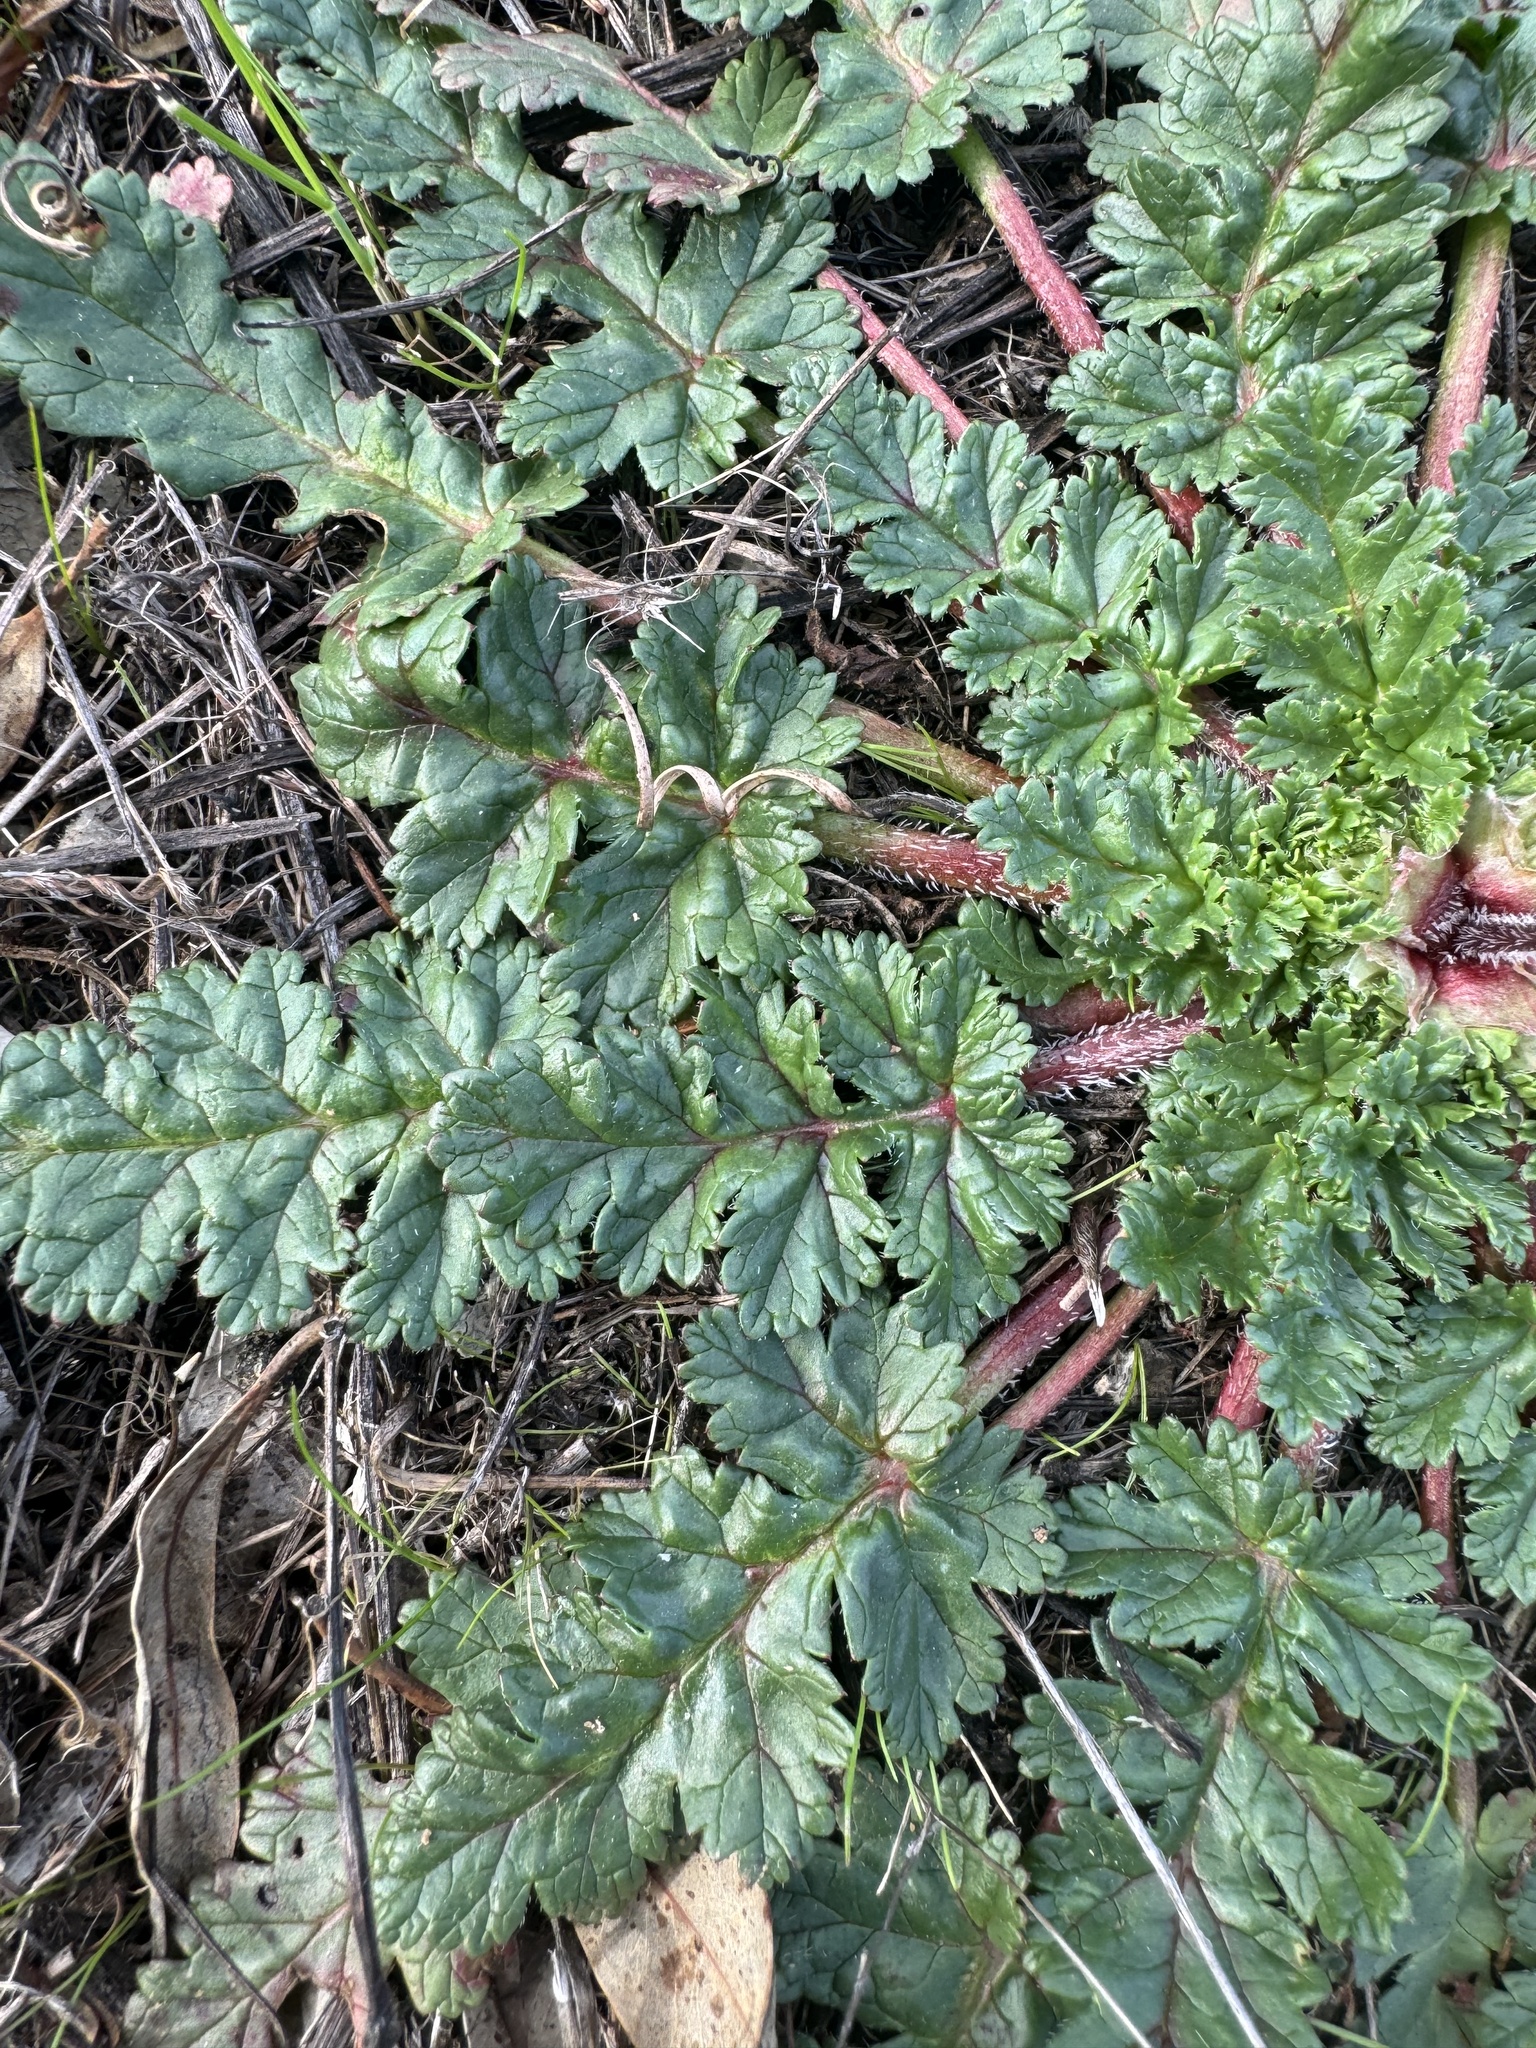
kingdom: Plantae
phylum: Tracheophyta
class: Magnoliopsida
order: Geraniales
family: Geraniaceae
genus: Erodium
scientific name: Erodium botrys
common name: Mediterranean stork's-bill
